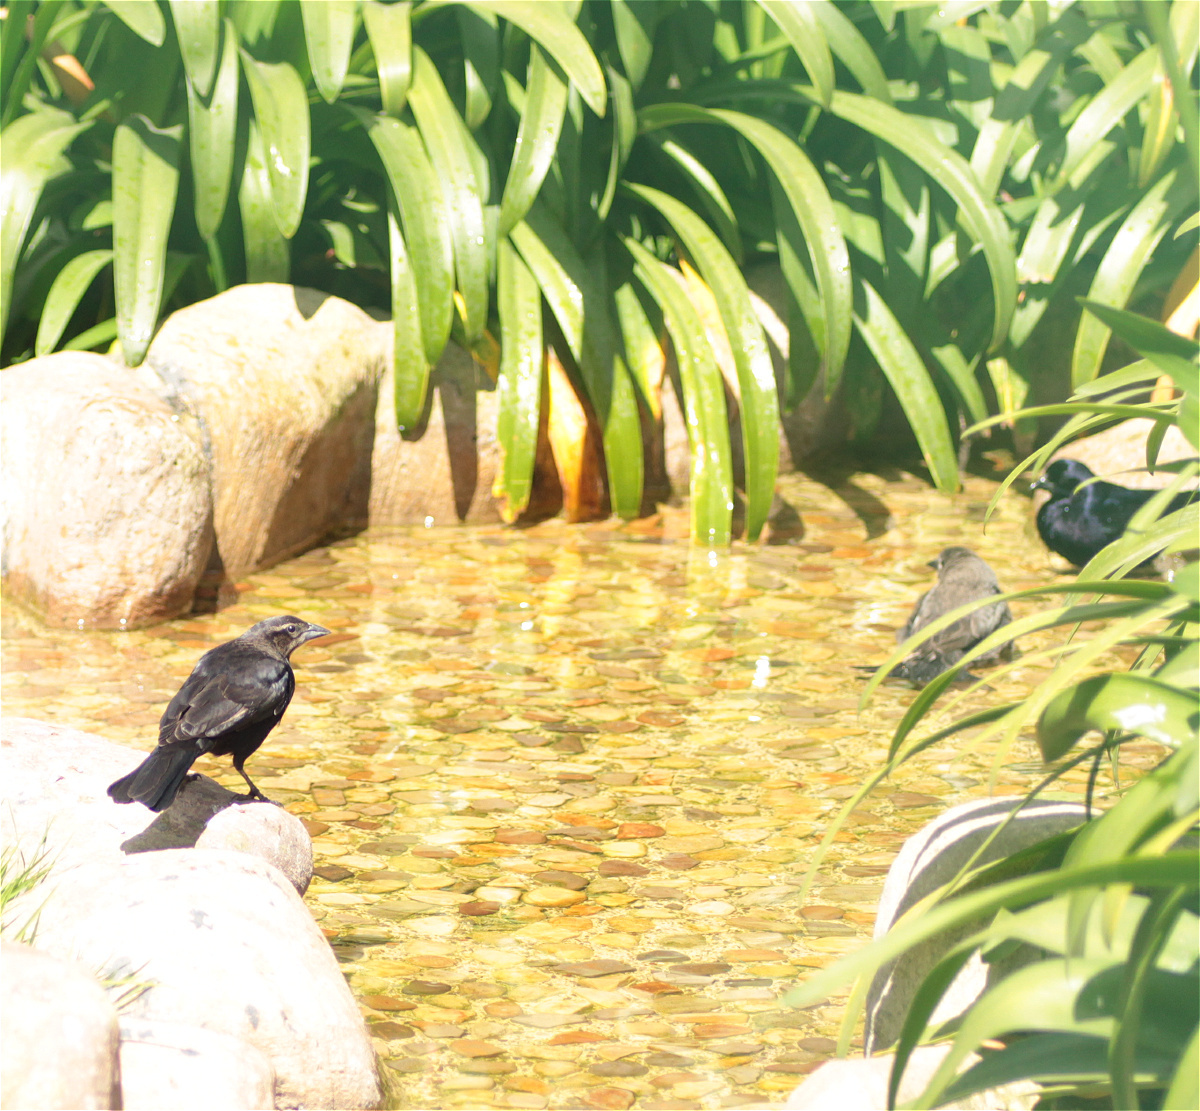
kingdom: Animalia
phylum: Chordata
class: Aves
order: Passeriformes
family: Icteridae
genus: Molothrus
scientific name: Molothrus bonariensis
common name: Shiny cowbird
